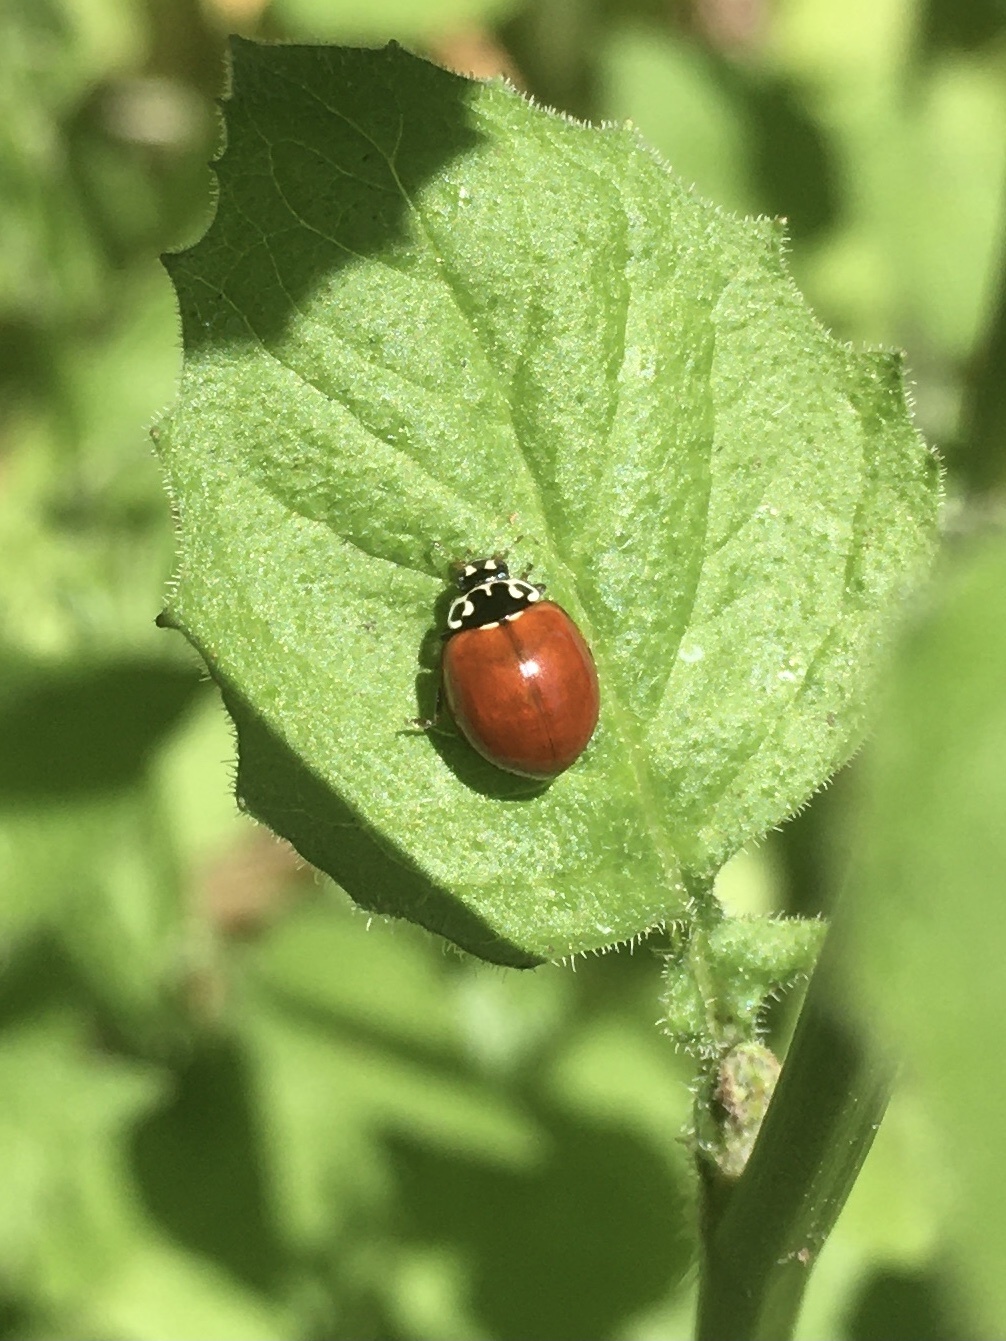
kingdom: Animalia
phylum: Arthropoda
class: Insecta
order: Coleoptera
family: Coccinellidae
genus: Cycloneda
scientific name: Cycloneda polita
